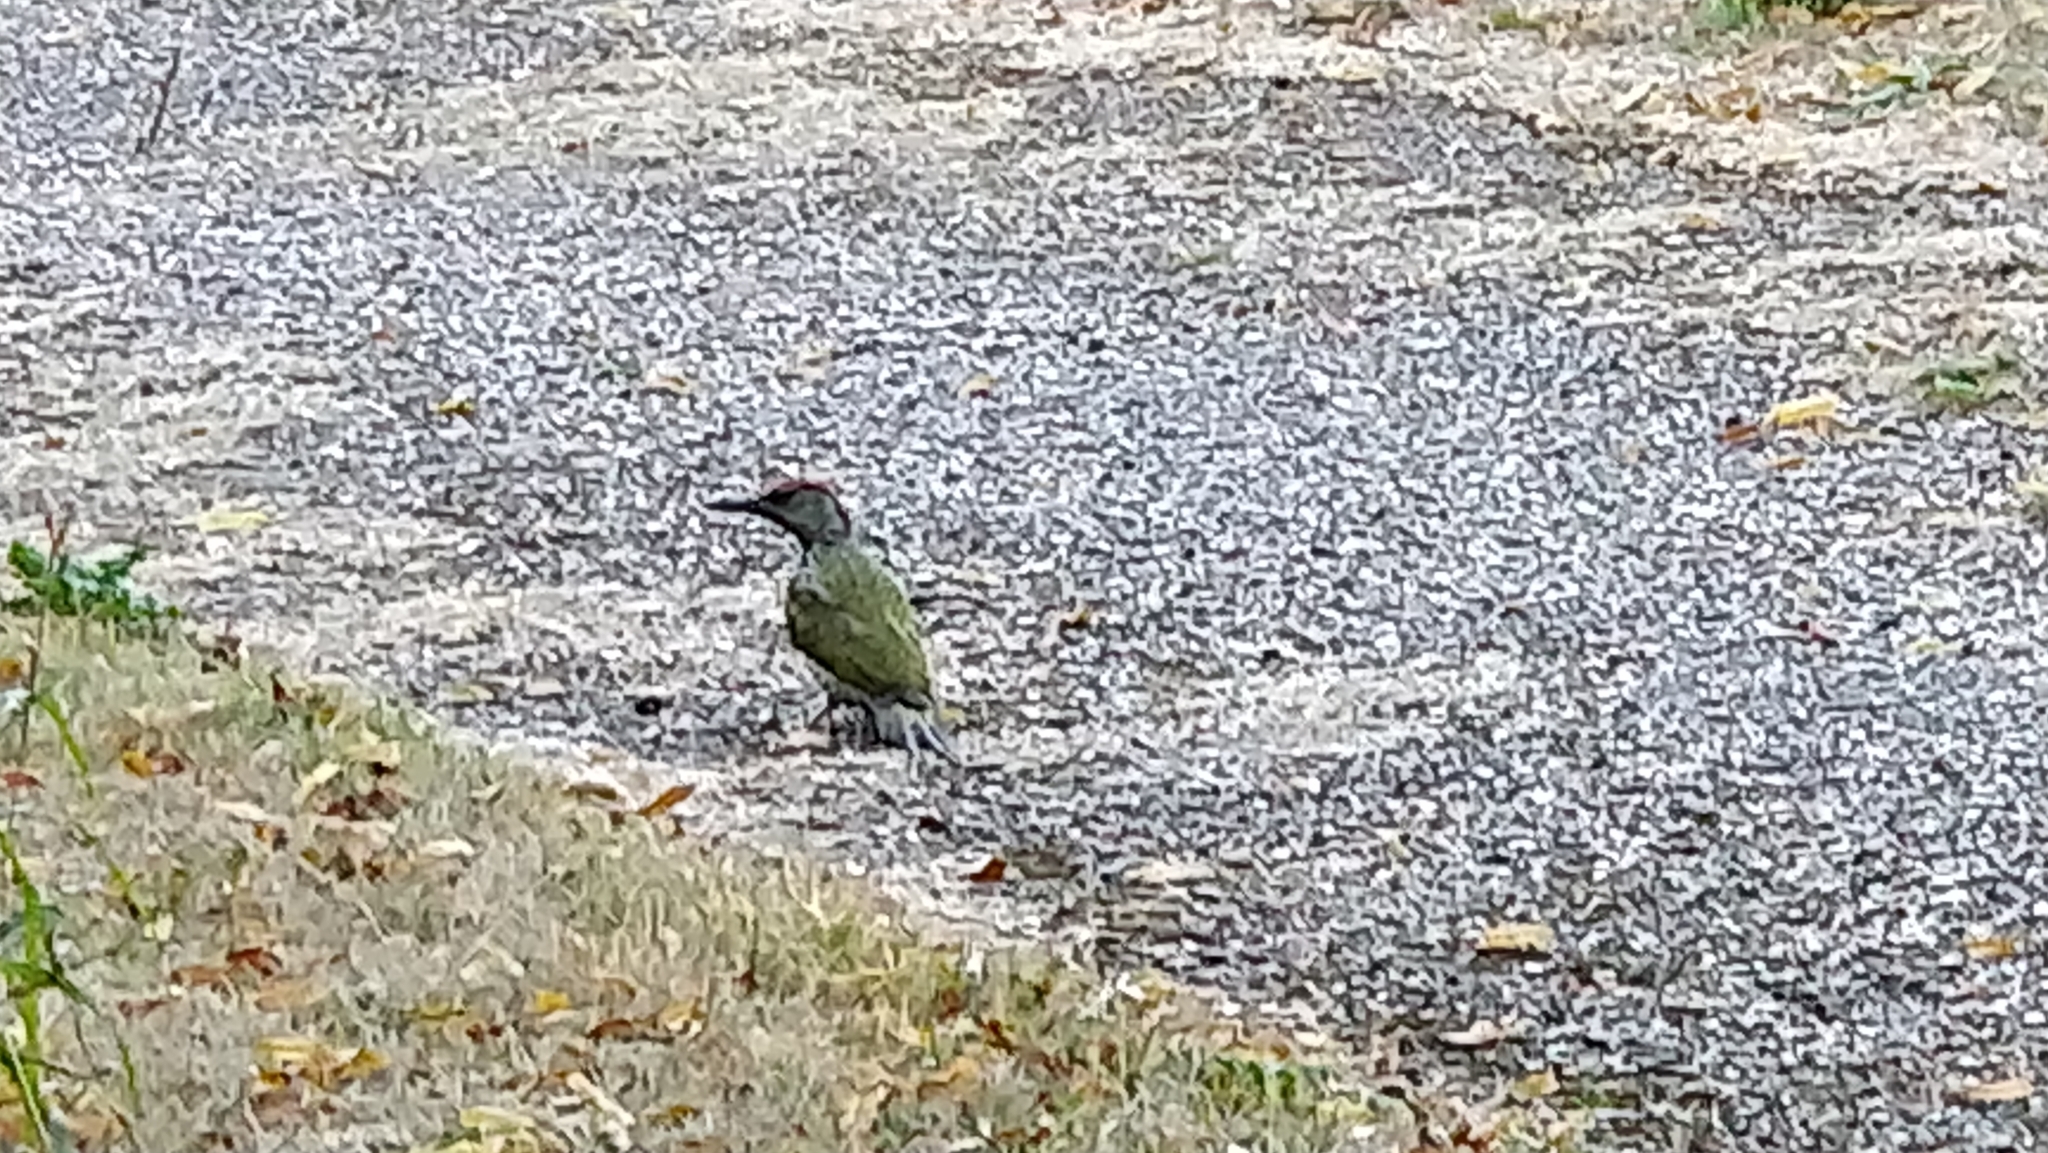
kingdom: Animalia
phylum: Chordata
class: Aves
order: Piciformes
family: Picidae
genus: Picus
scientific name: Picus viridis
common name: European green woodpecker
